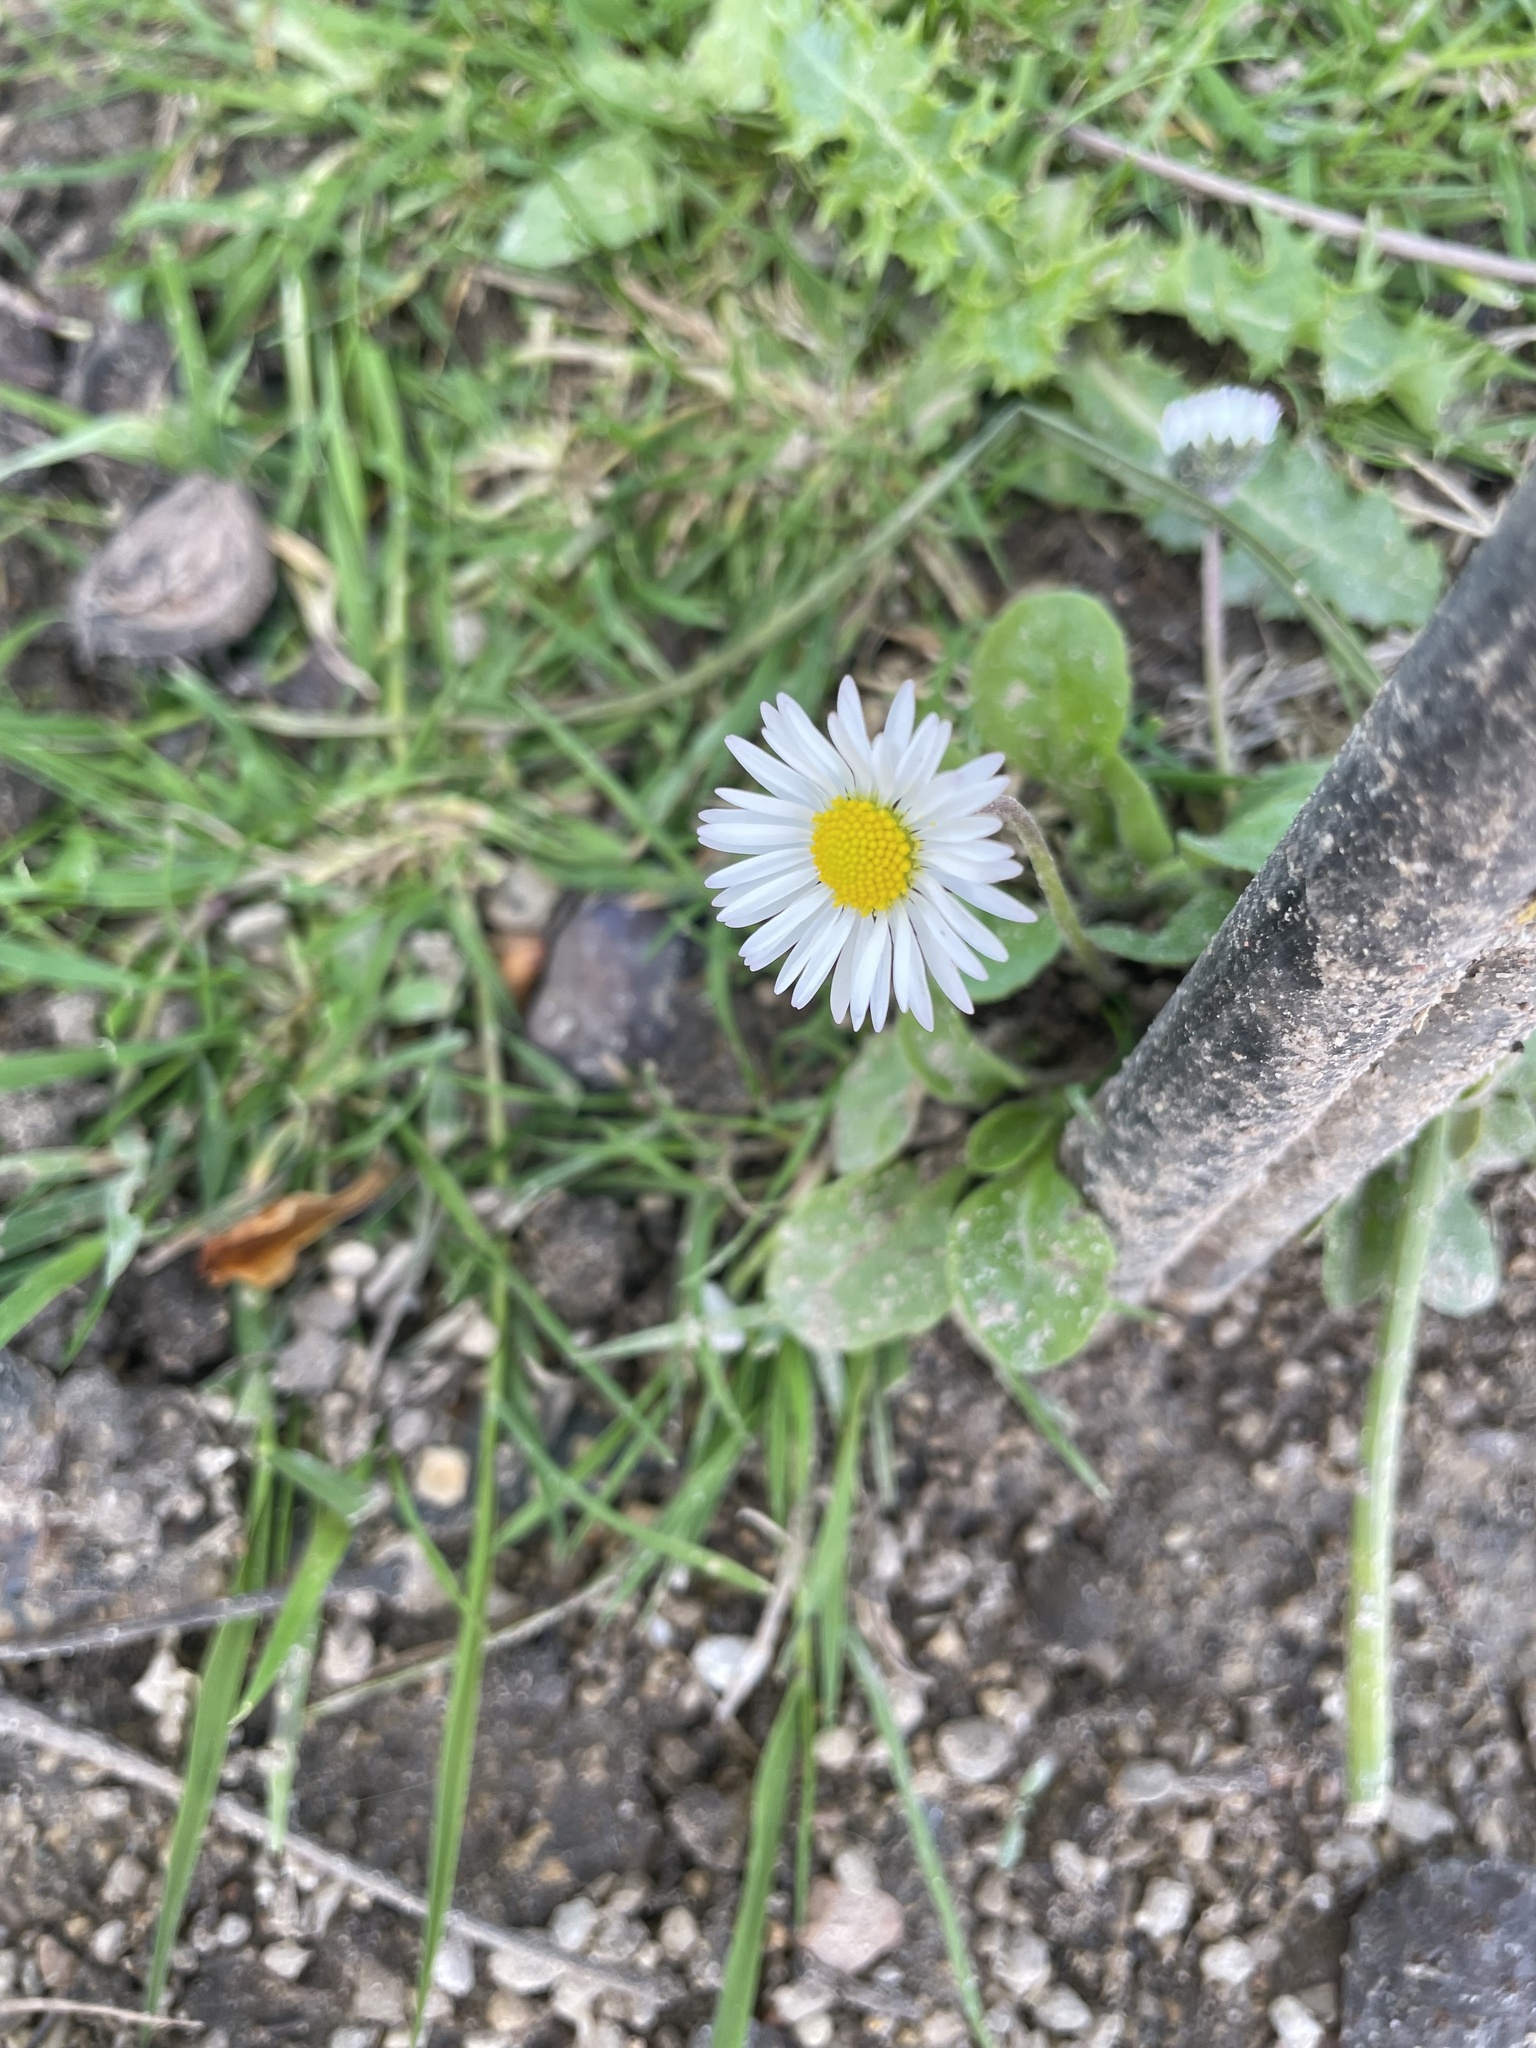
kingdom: Plantae
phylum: Tracheophyta
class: Magnoliopsida
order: Asterales
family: Asteraceae
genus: Bellis
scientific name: Bellis perennis
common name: Lawndaisy
